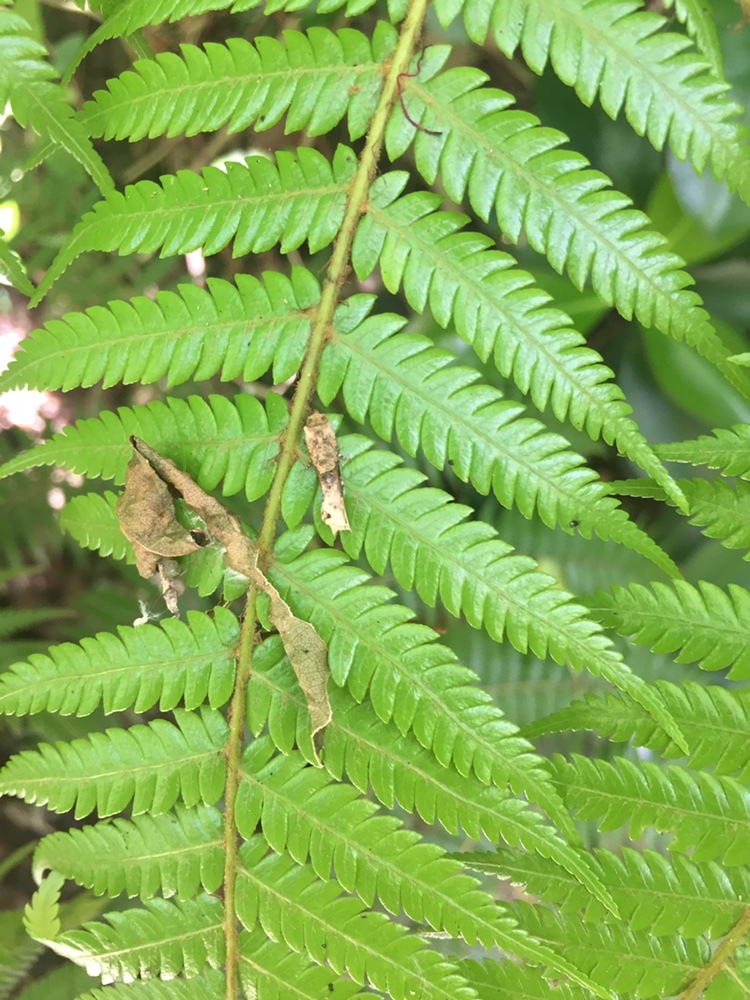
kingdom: Animalia
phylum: Arthropoda
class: Insecta
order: Lepidoptera
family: Tortricidae
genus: Epalxiphora
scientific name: Epalxiphora axenana
